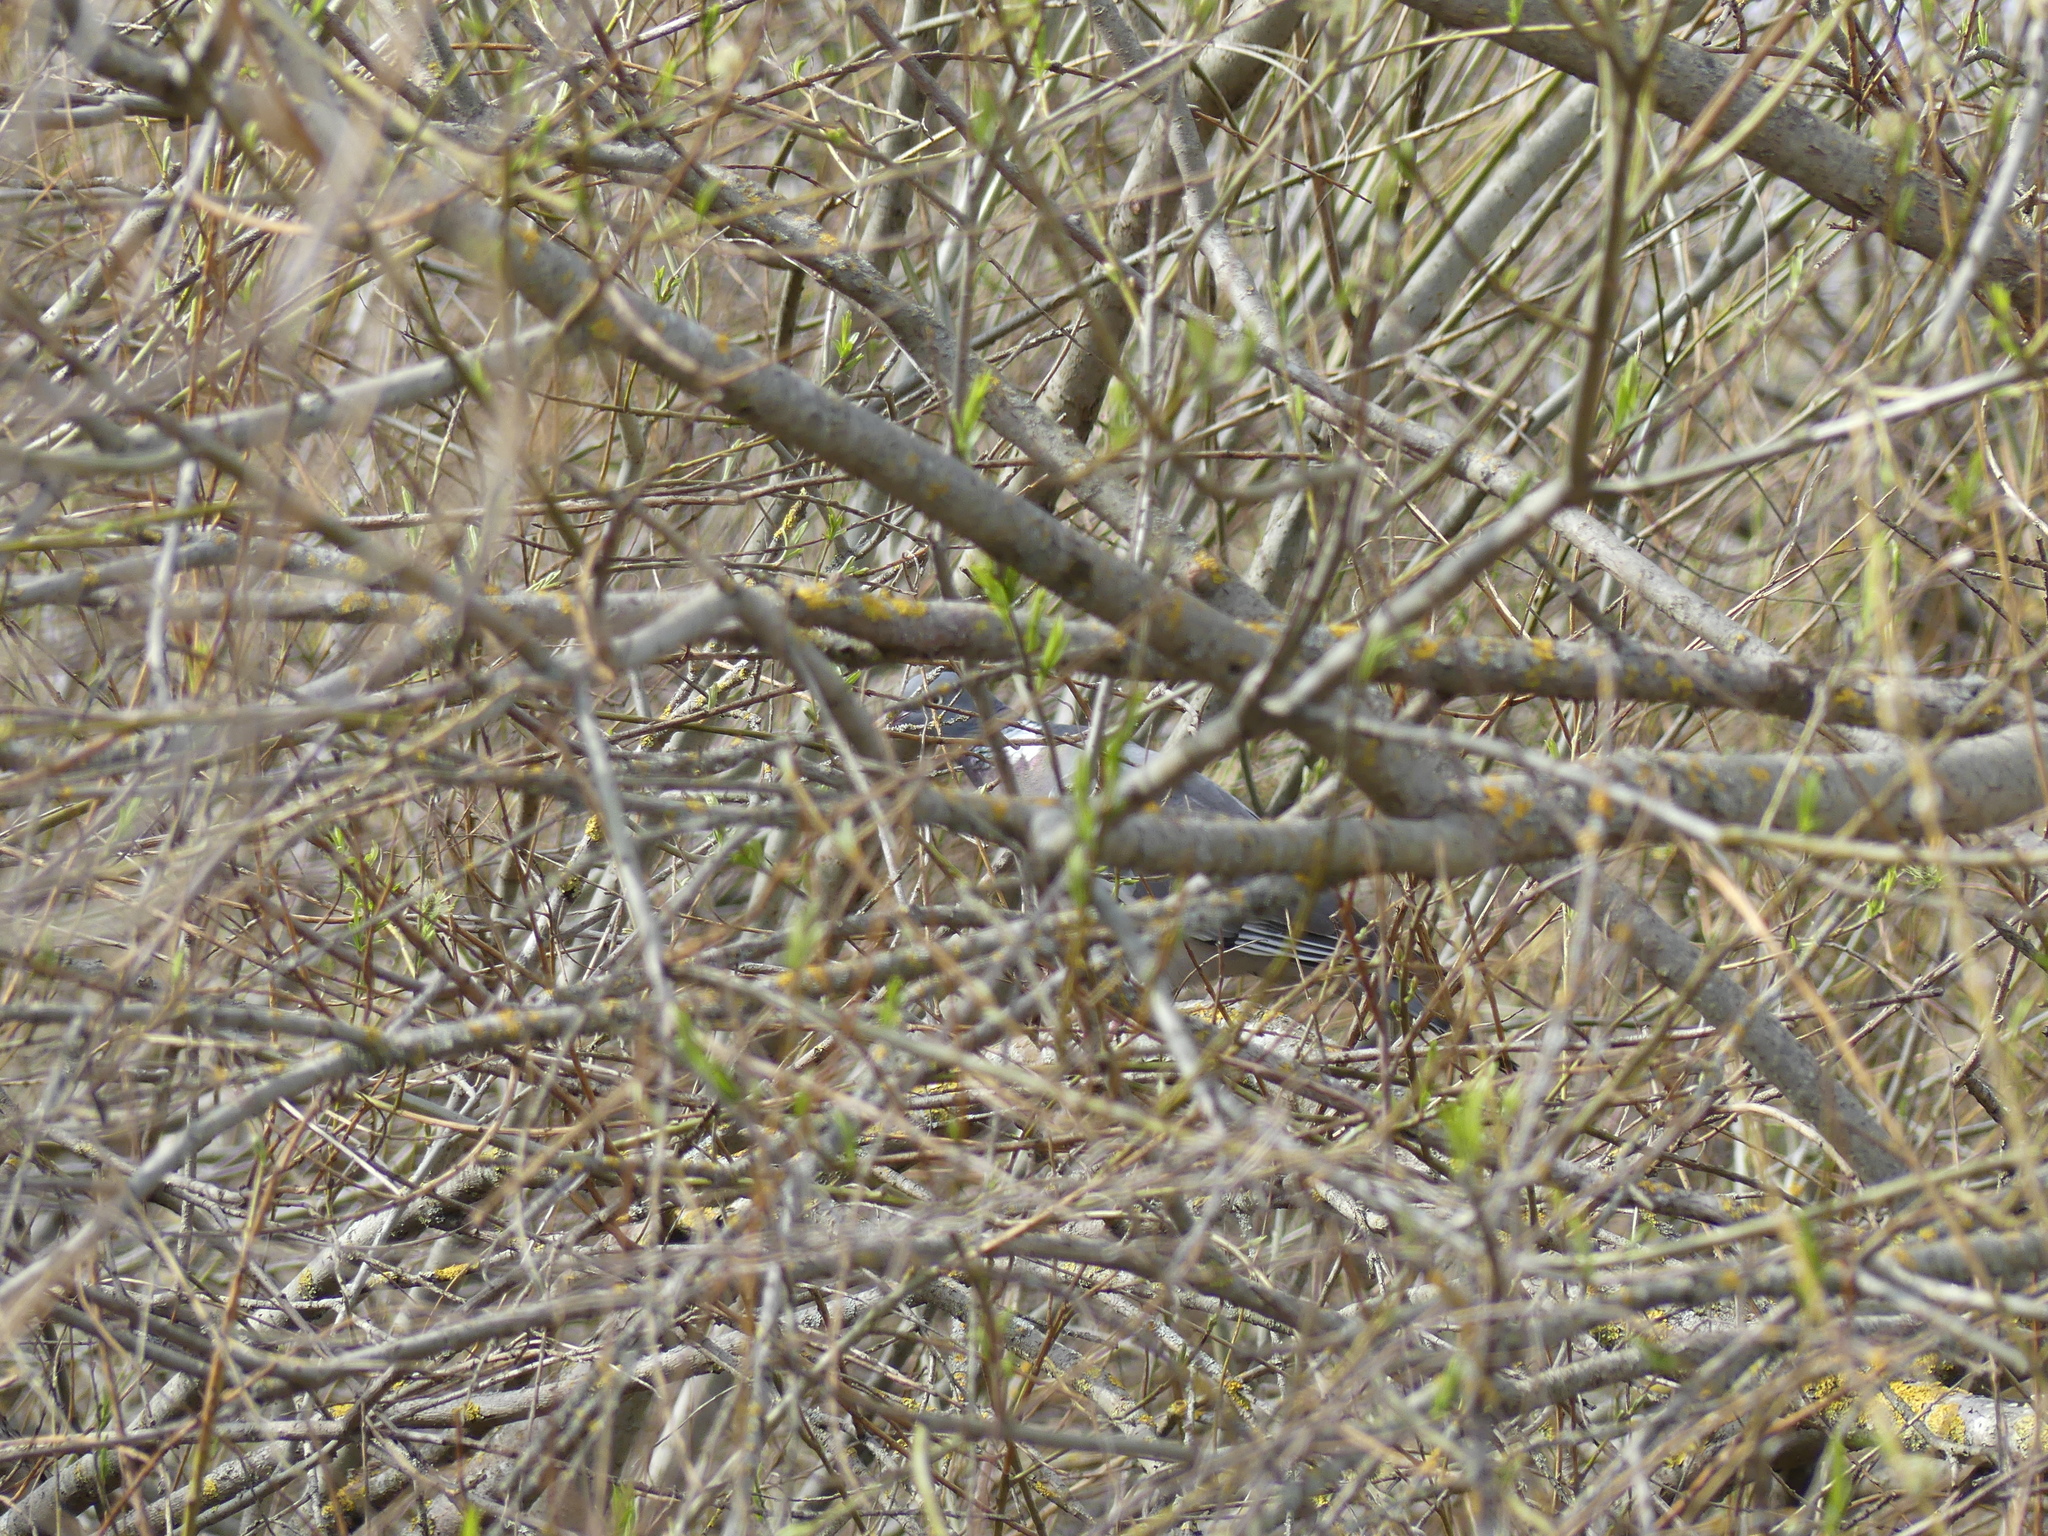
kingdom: Animalia
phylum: Chordata
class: Aves
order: Columbiformes
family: Columbidae
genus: Columba
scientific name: Columba palumbus
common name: Common wood pigeon
